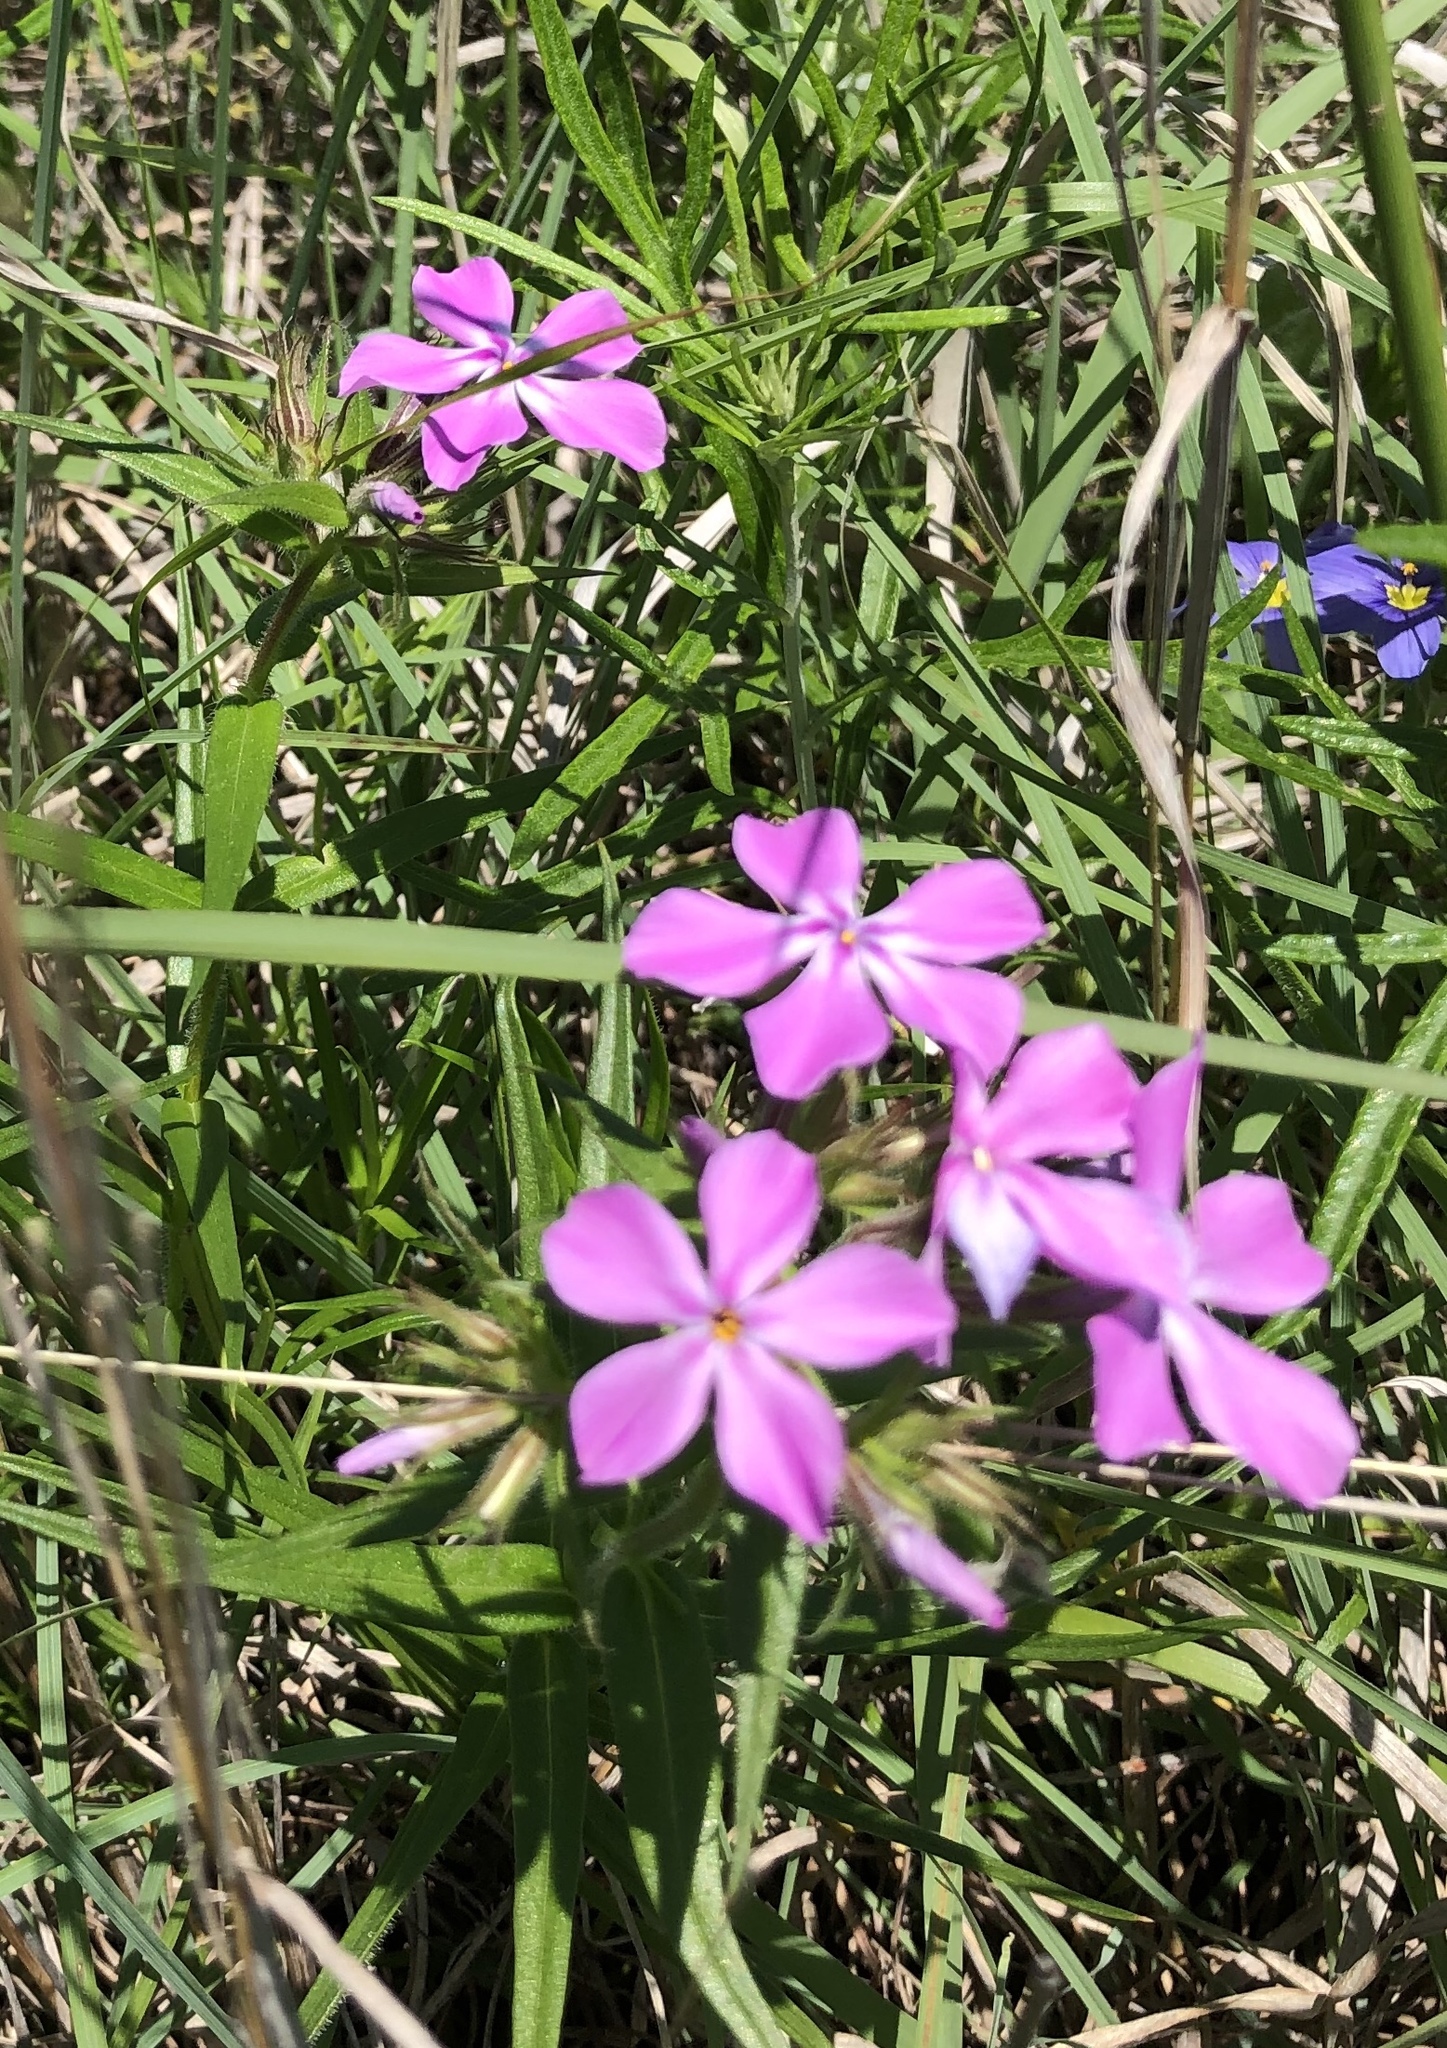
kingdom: Plantae
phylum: Tracheophyta
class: Magnoliopsida
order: Ericales
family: Polemoniaceae
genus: Phlox
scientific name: Phlox pilosa
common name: Prairie phlox
